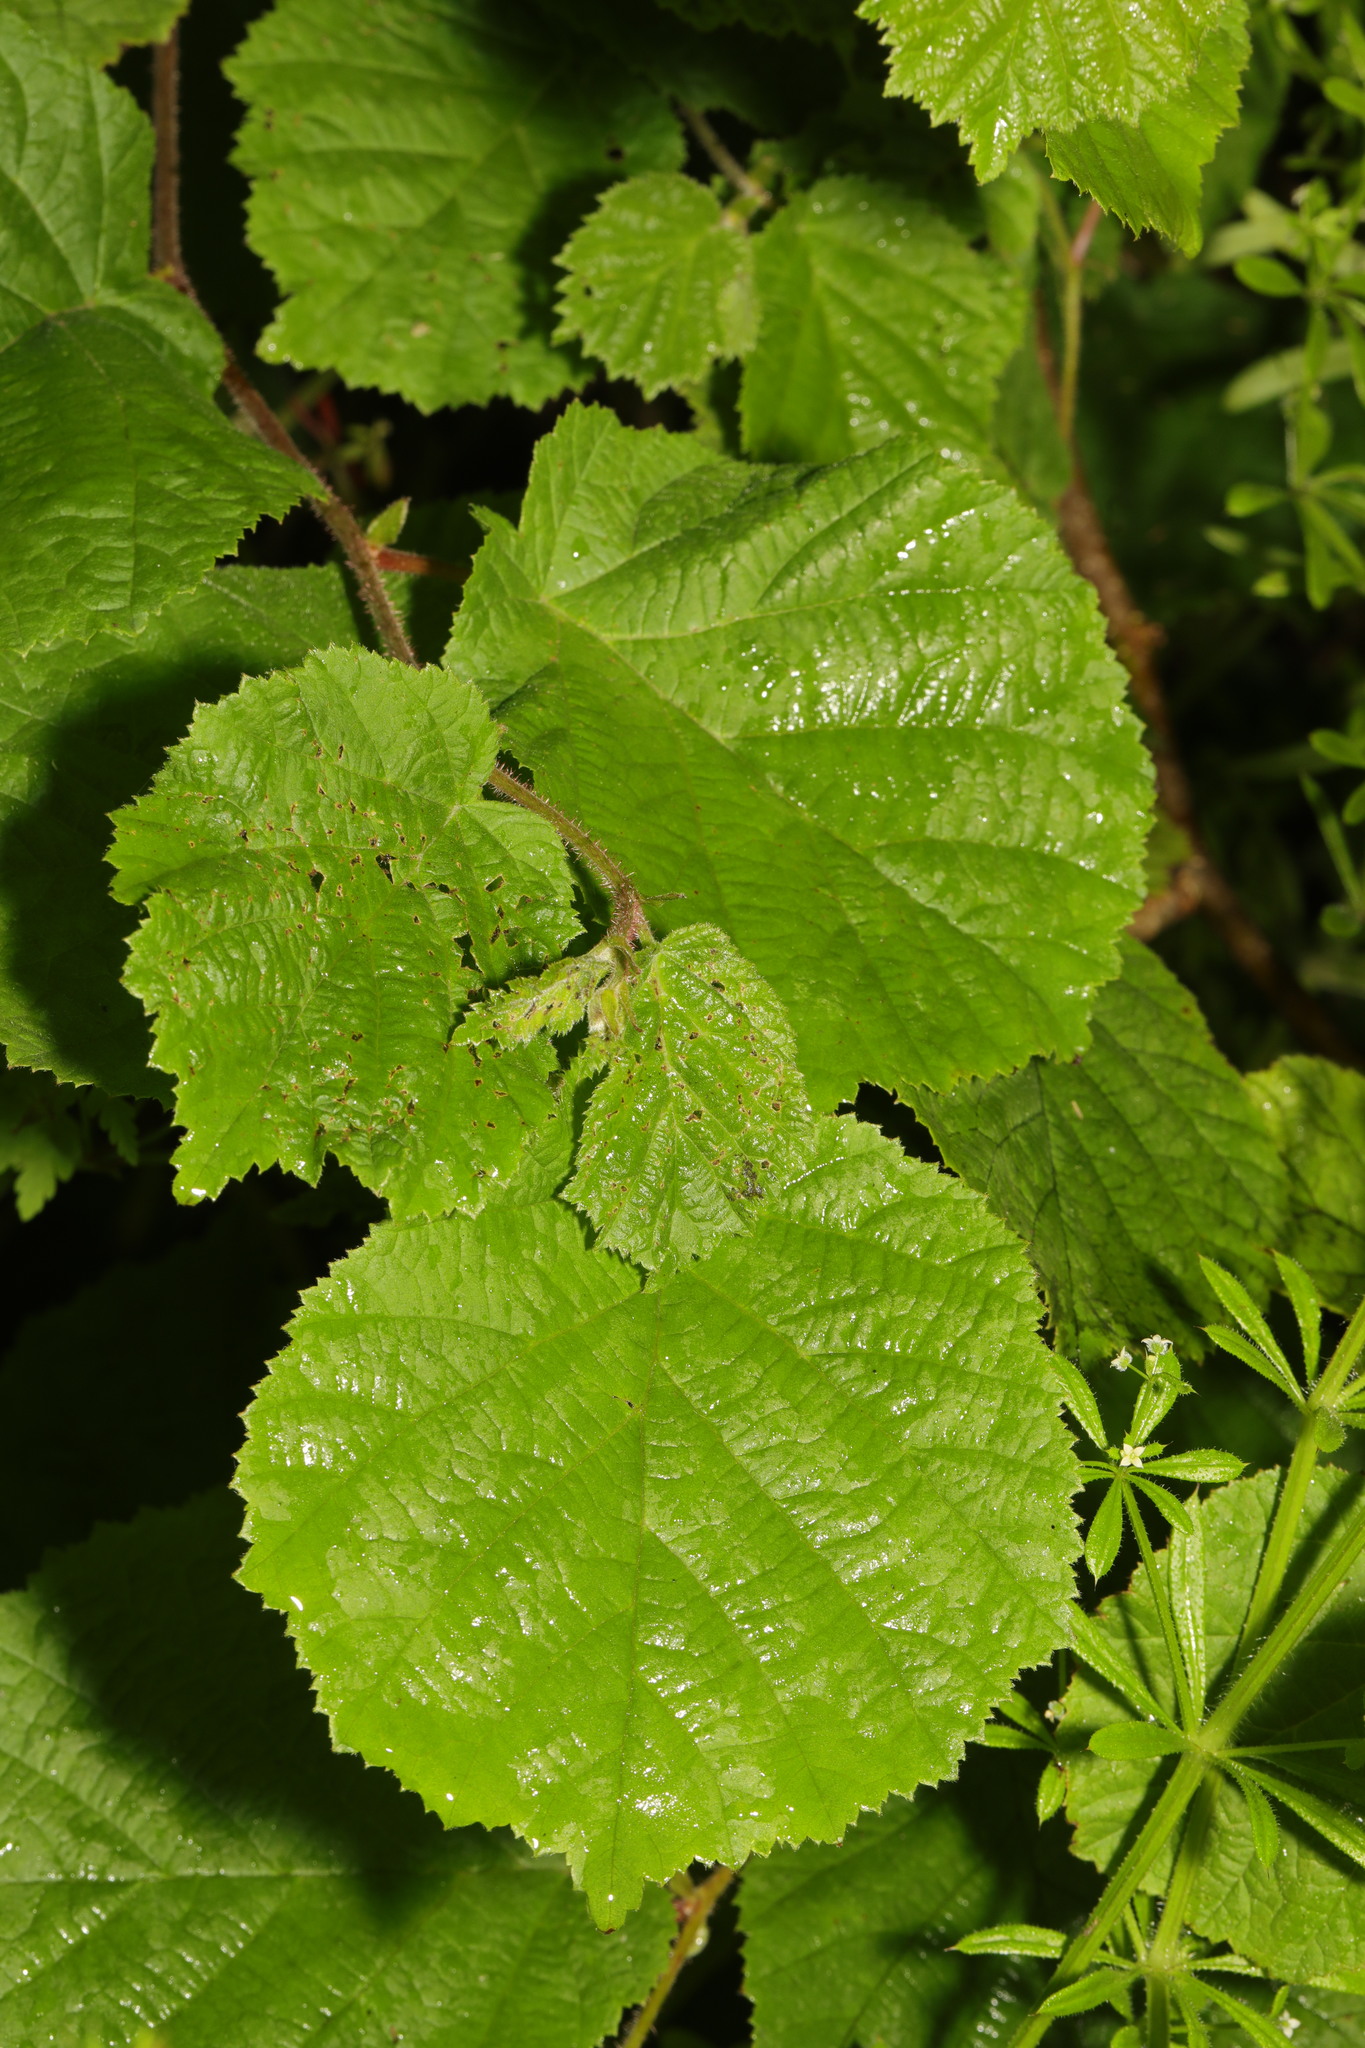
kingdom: Plantae
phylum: Tracheophyta
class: Magnoliopsida
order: Fagales
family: Betulaceae
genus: Corylus
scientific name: Corylus avellana
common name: European hazel
